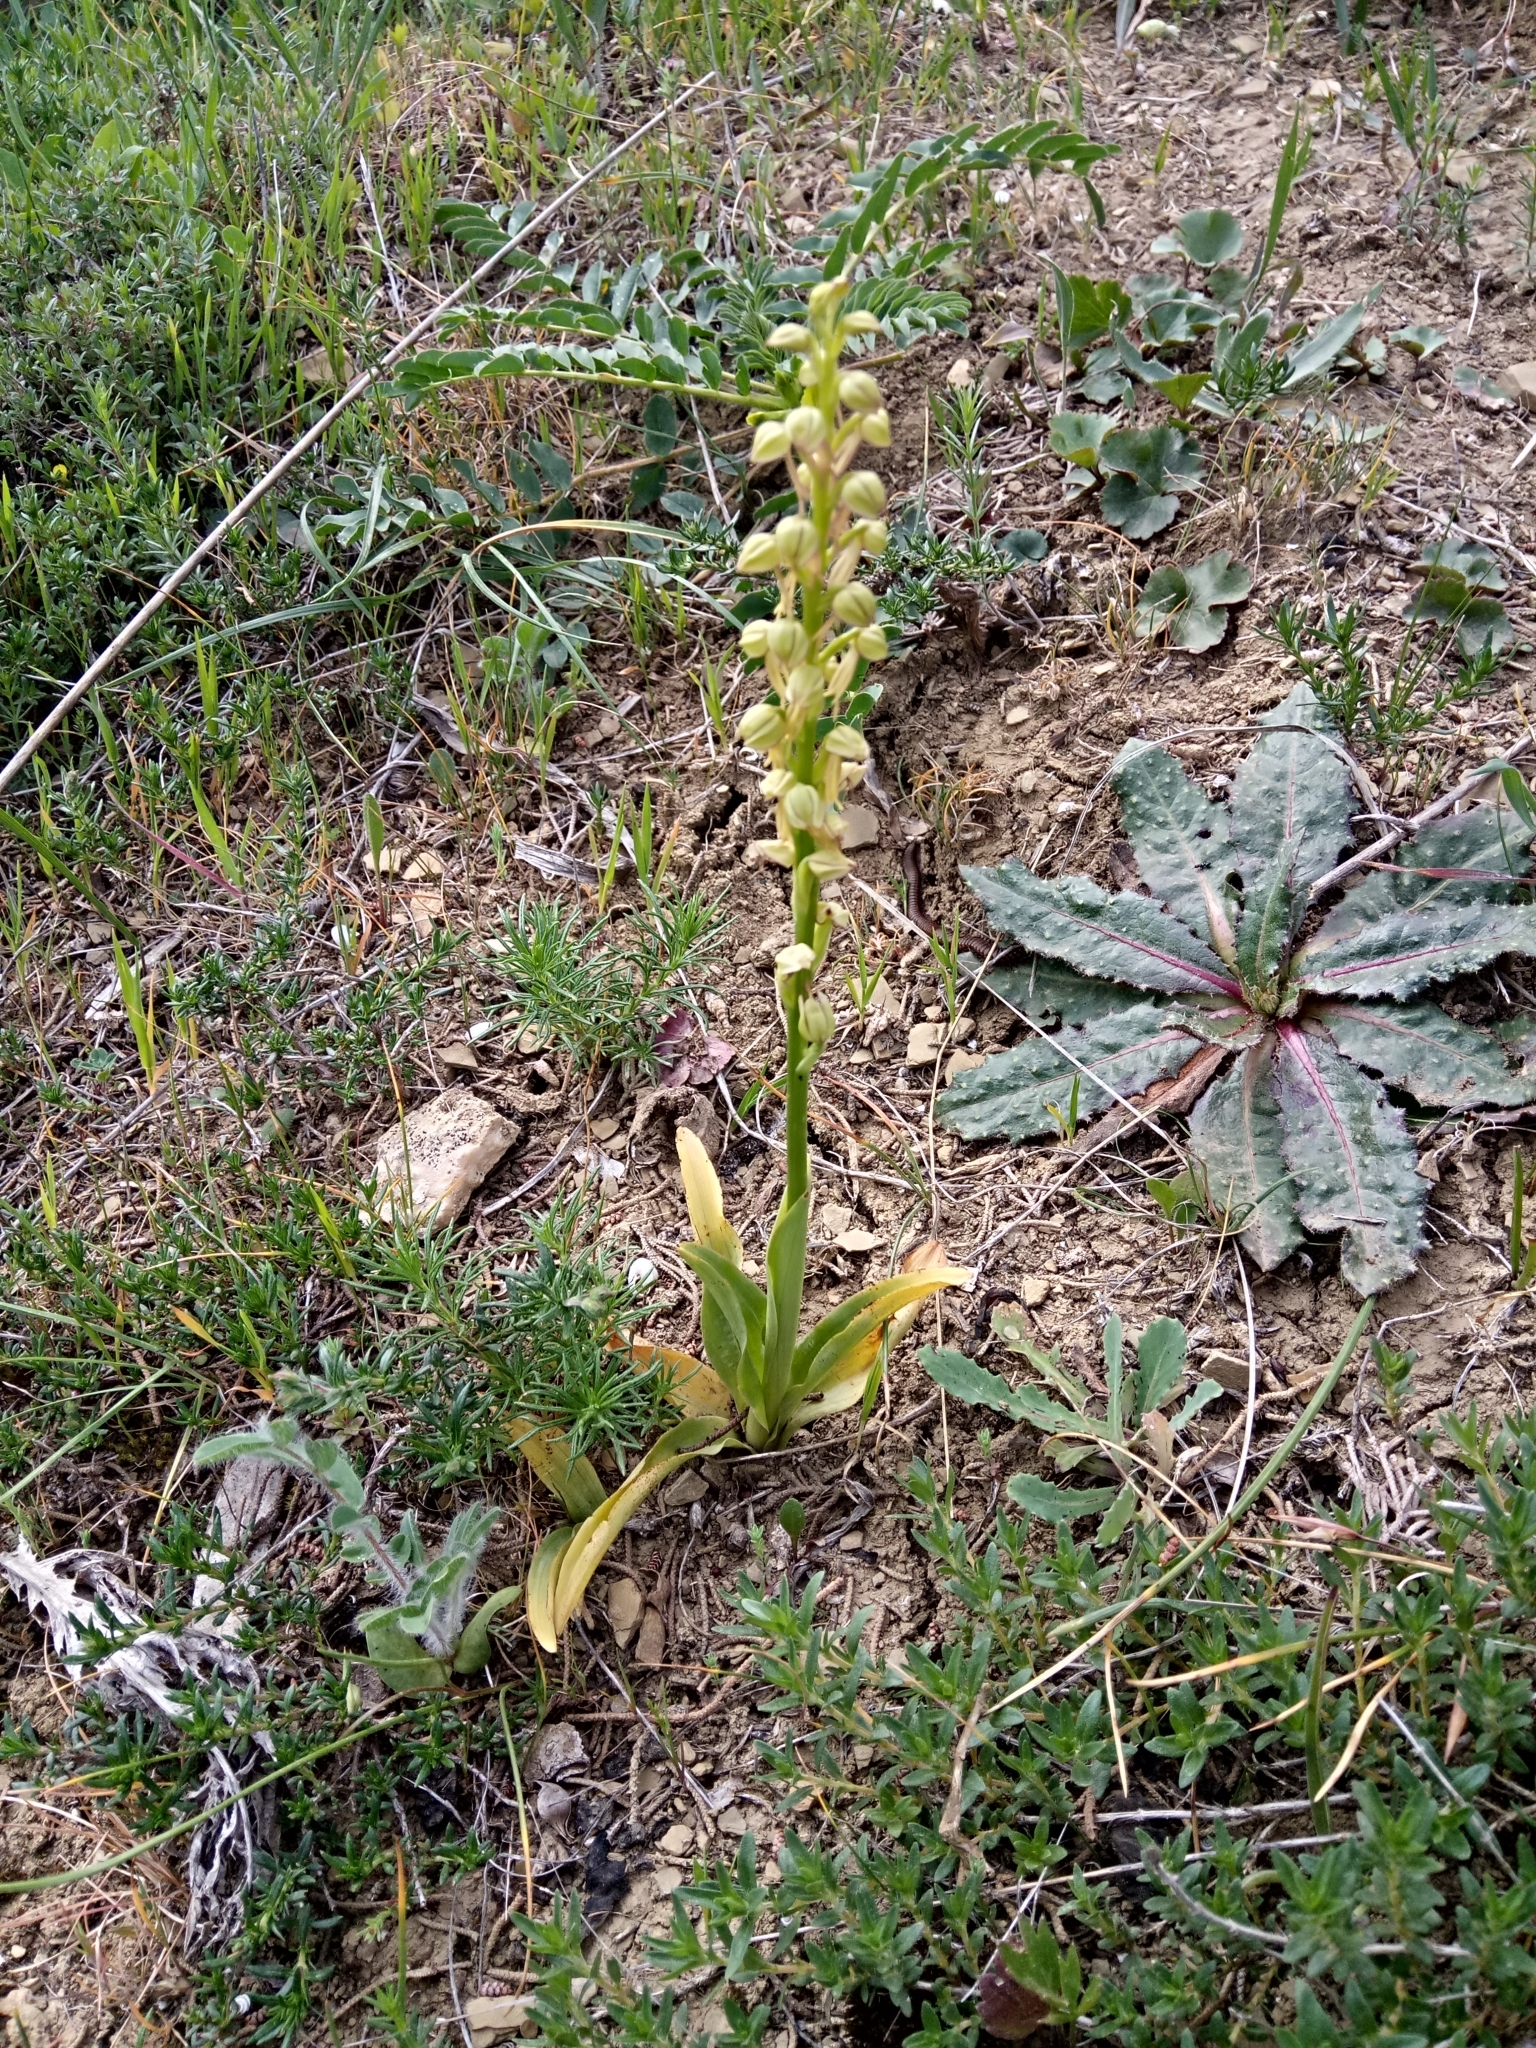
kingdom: Plantae
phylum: Tracheophyta
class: Liliopsida
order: Asparagales
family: Orchidaceae
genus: Orchis
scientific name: Orchis anthropophora
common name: Man orchid
